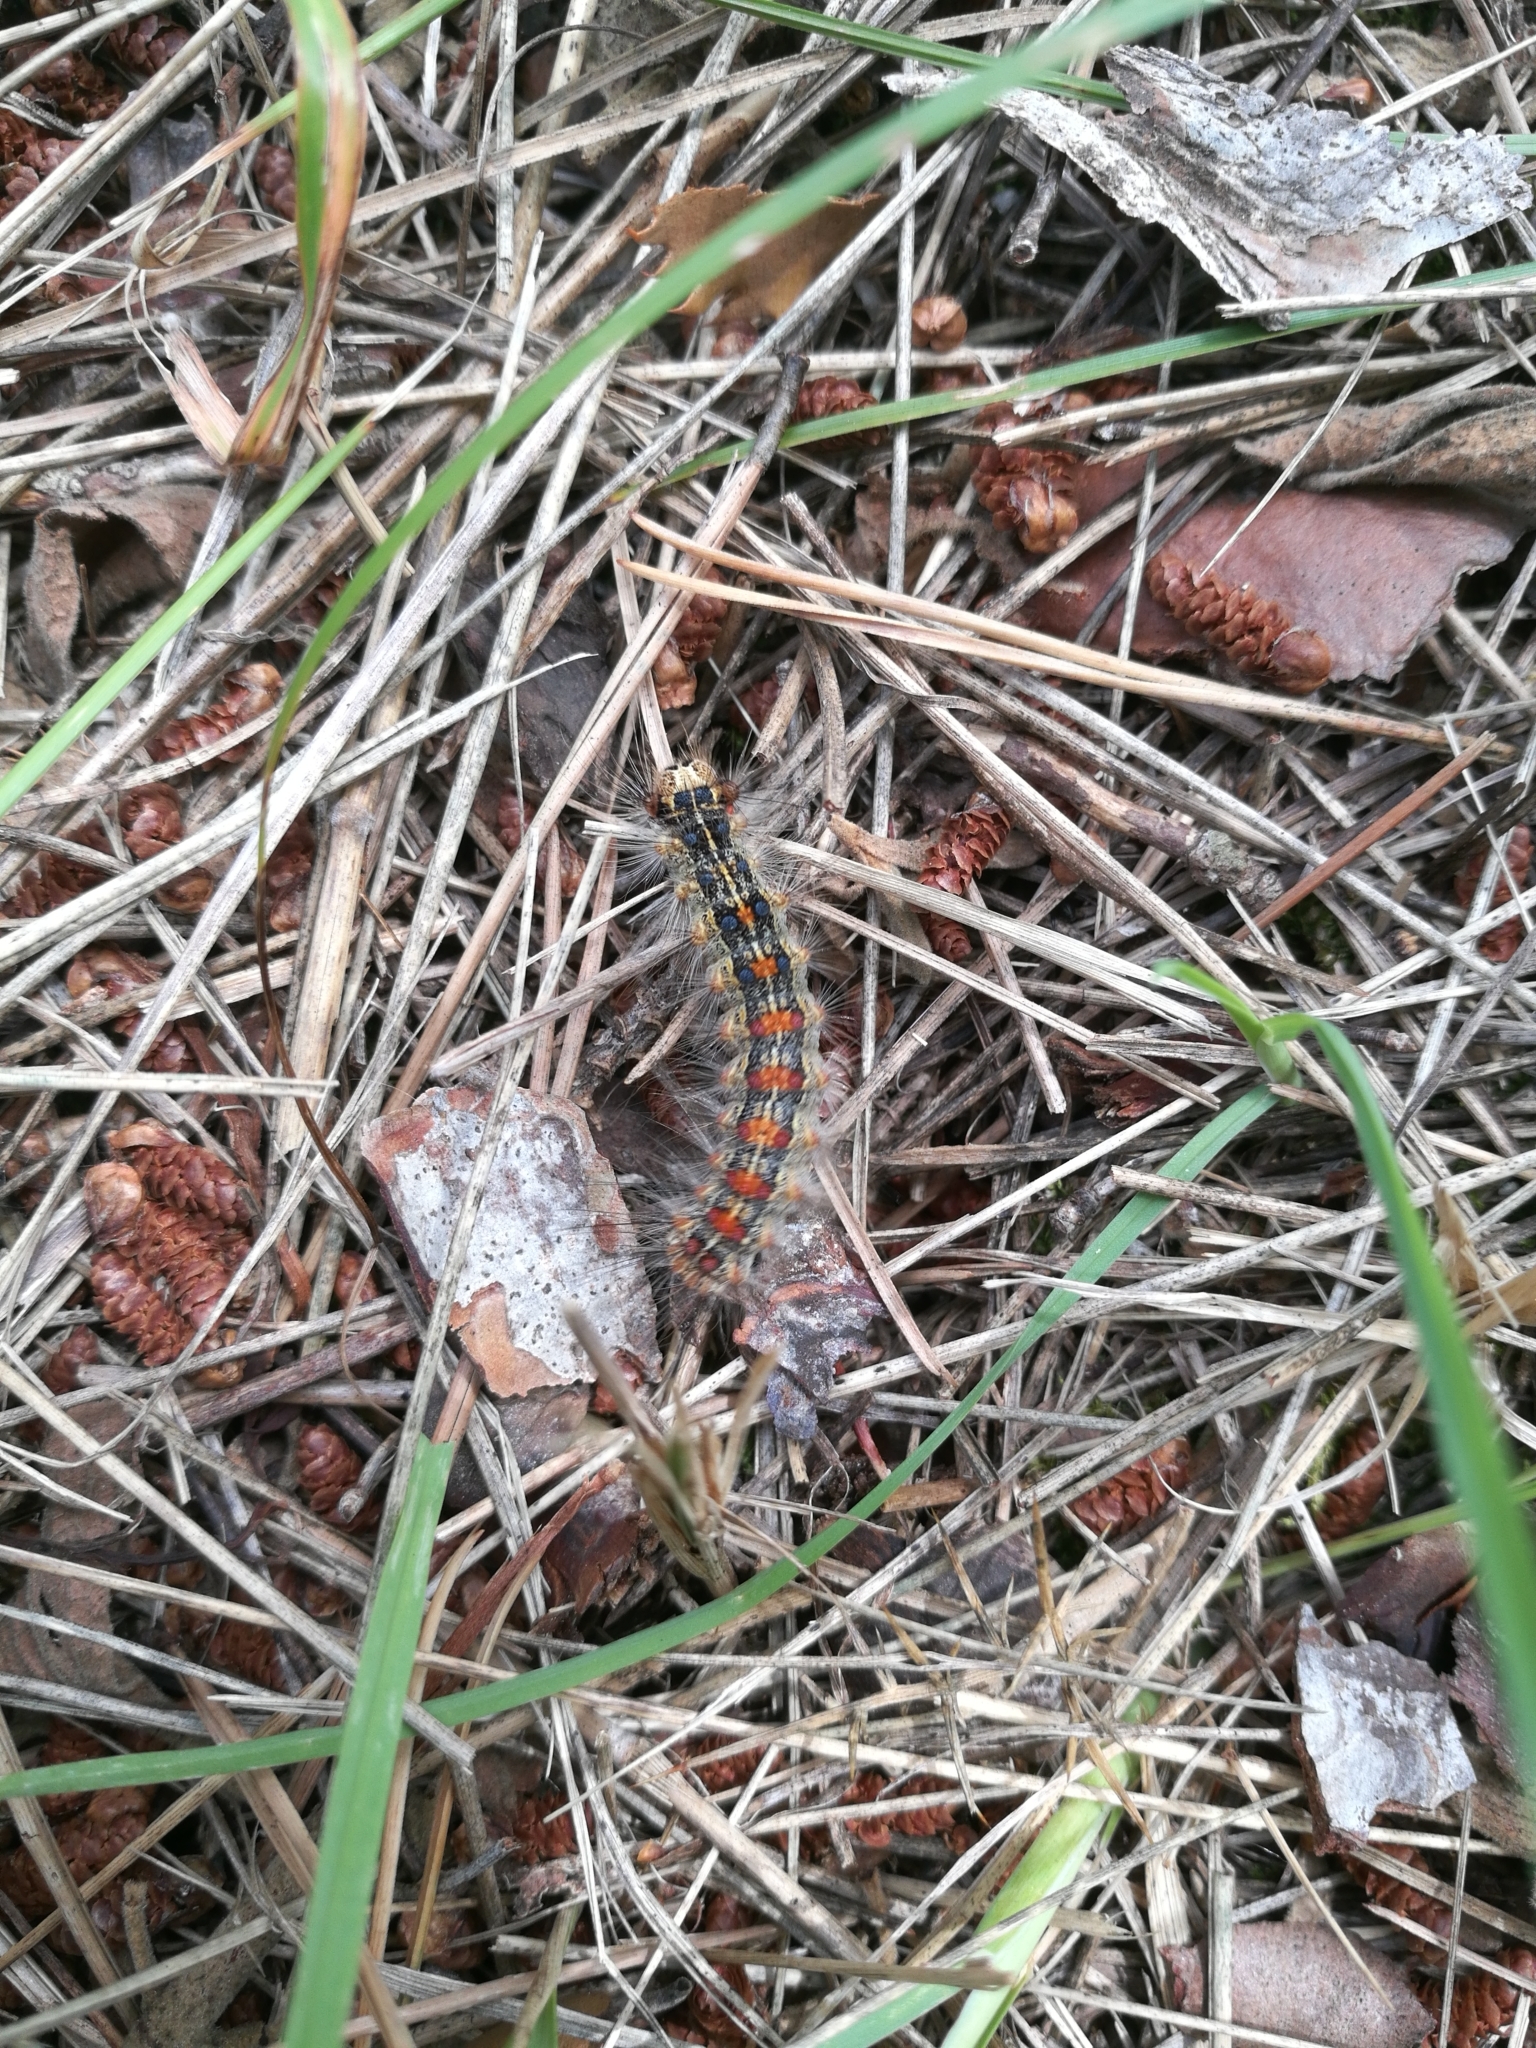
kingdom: Animalia
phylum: Arthropoda
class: Insecta
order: Lepidoptera
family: Erebidae
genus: Lymantria
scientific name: Lymantria dispar
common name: Gypsy moth
